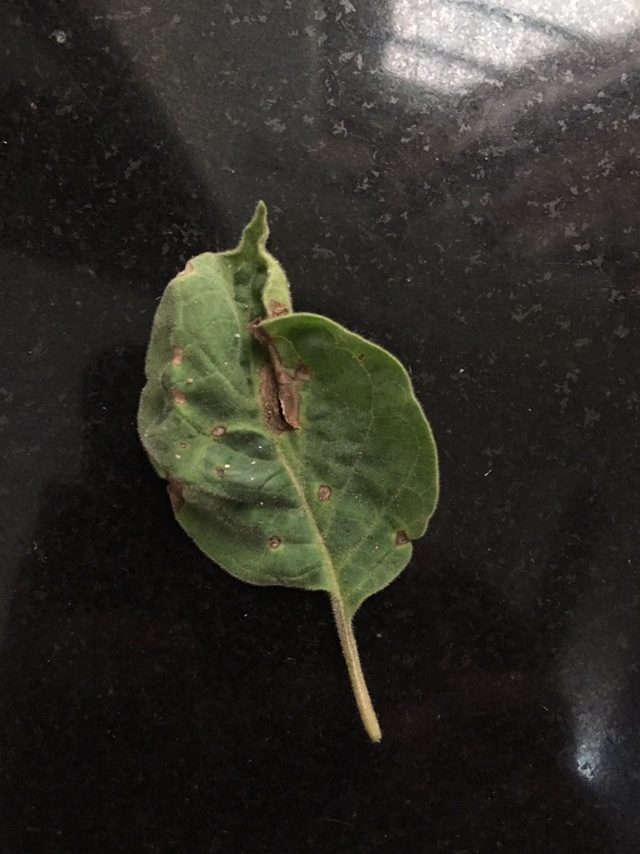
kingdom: Fungi
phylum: Ascomycota
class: Dothideomycetes
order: Mycosphaerellales
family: Mycosphaerellaceae
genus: Pseudocercospora
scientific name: Pseudocercospora jamaicensis
